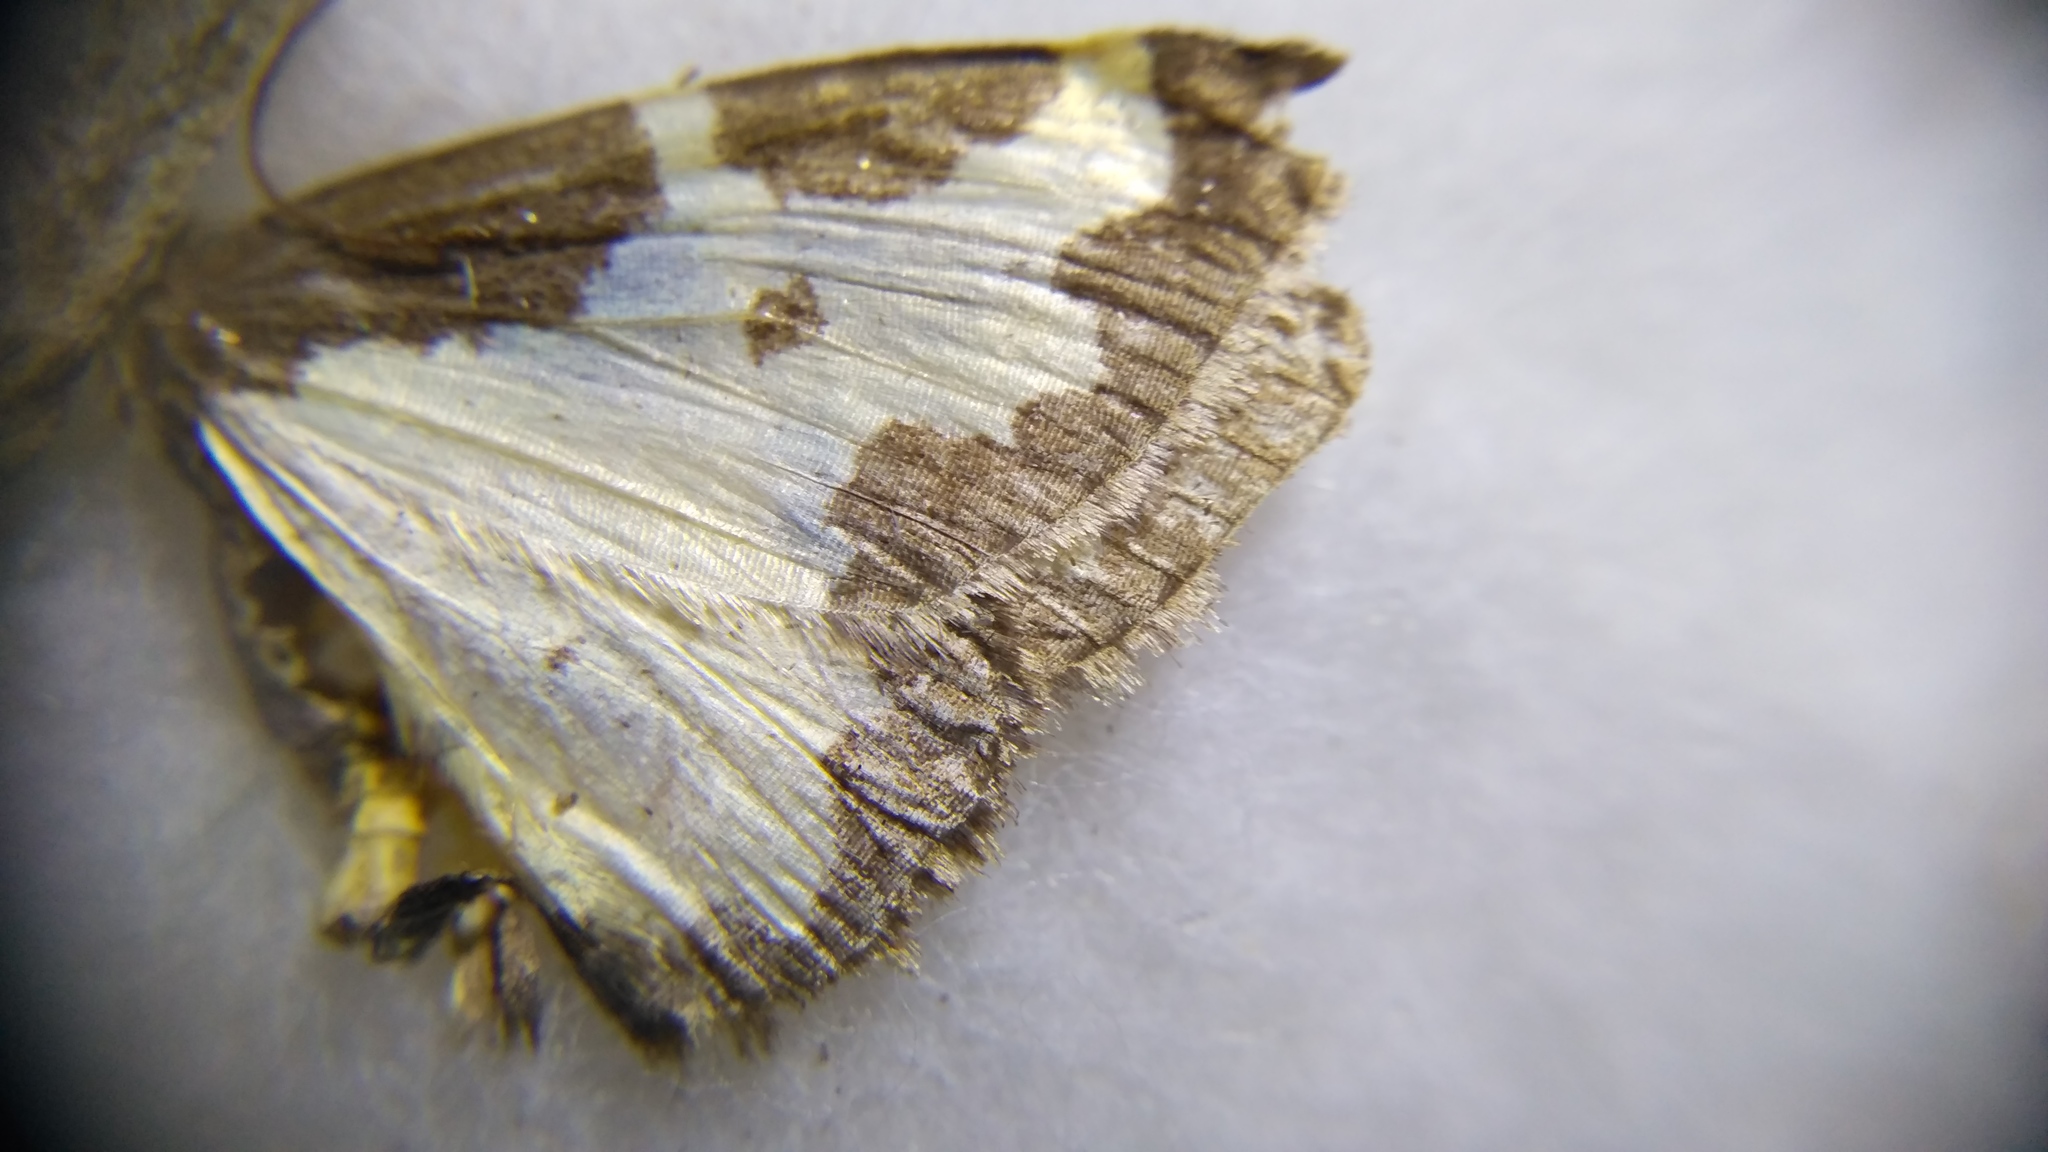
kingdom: Animalia
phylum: Arthropoda
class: Insecta
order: Lepidoptera
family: Geometridae
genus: Lomaspilis
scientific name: Lomaspilis marginata
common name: Clouded border
